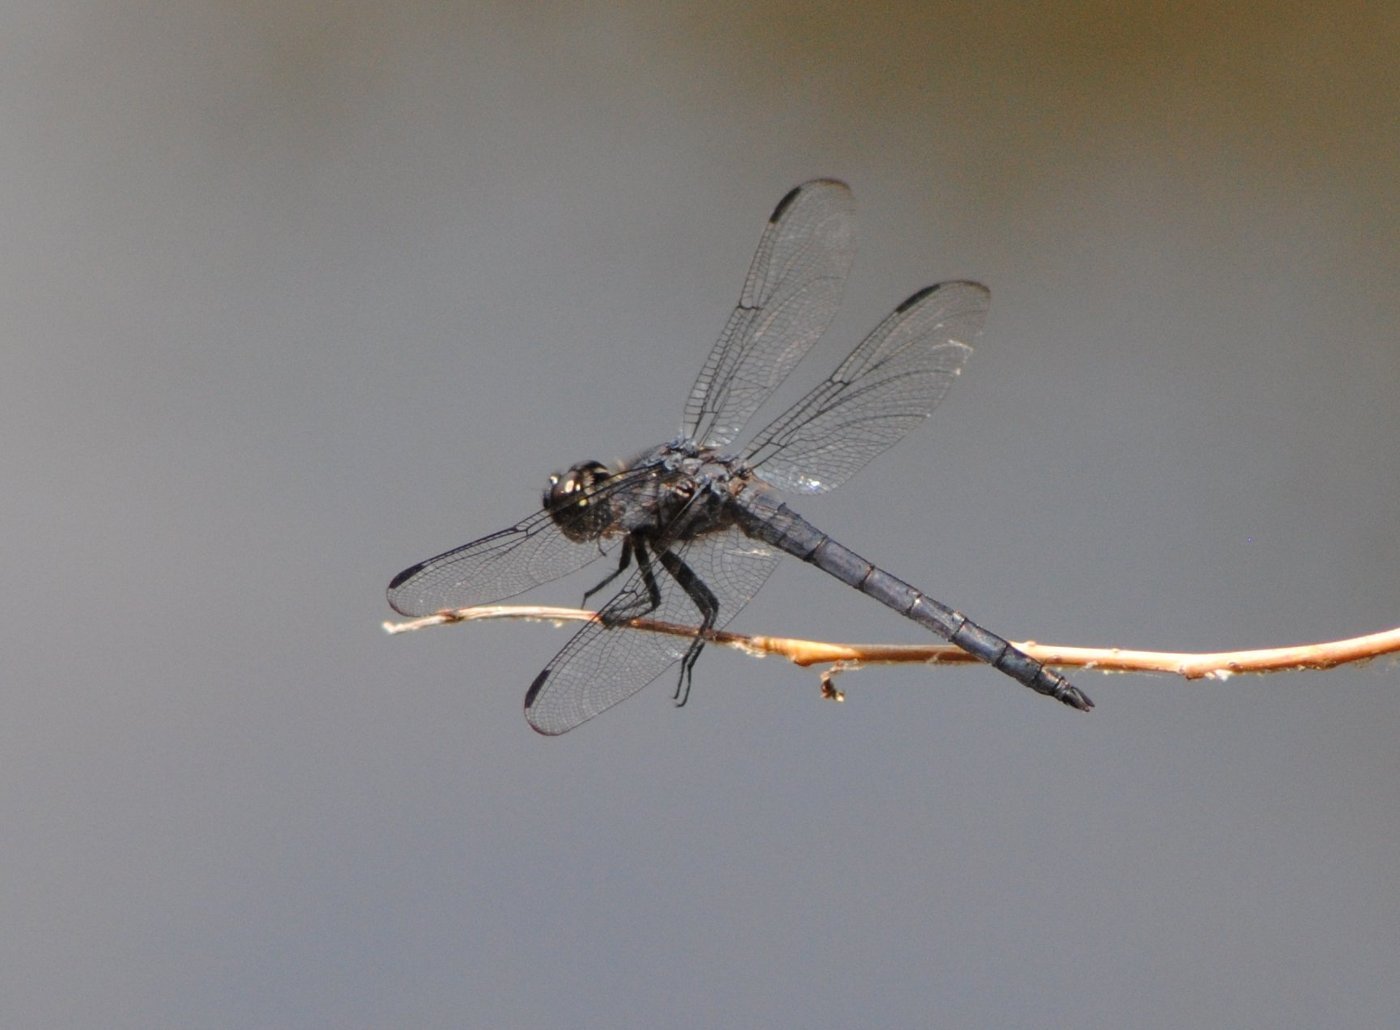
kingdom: Animalia
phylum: Arthropoda
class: Insecta
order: Odonata
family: Libellulidae
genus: Libellula
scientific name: Libellula incesta
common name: Slaty skimmer
